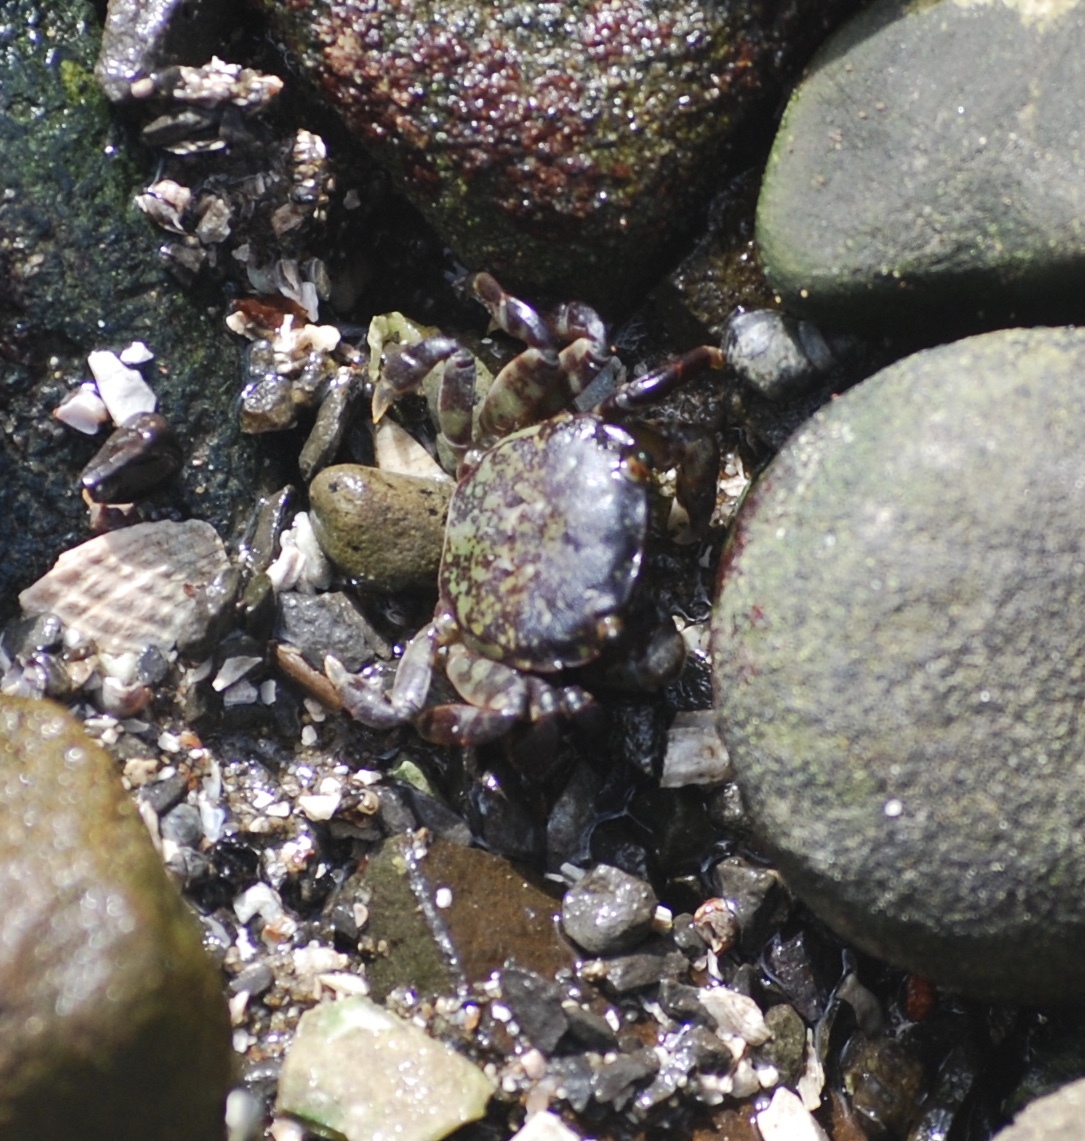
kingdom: Animalia
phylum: Arthropoda
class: Malacostraca
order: Decapoda
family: Varunidae
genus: Hemigrapsus
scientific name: Hemigrapsus nudus
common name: Purple shore crab
